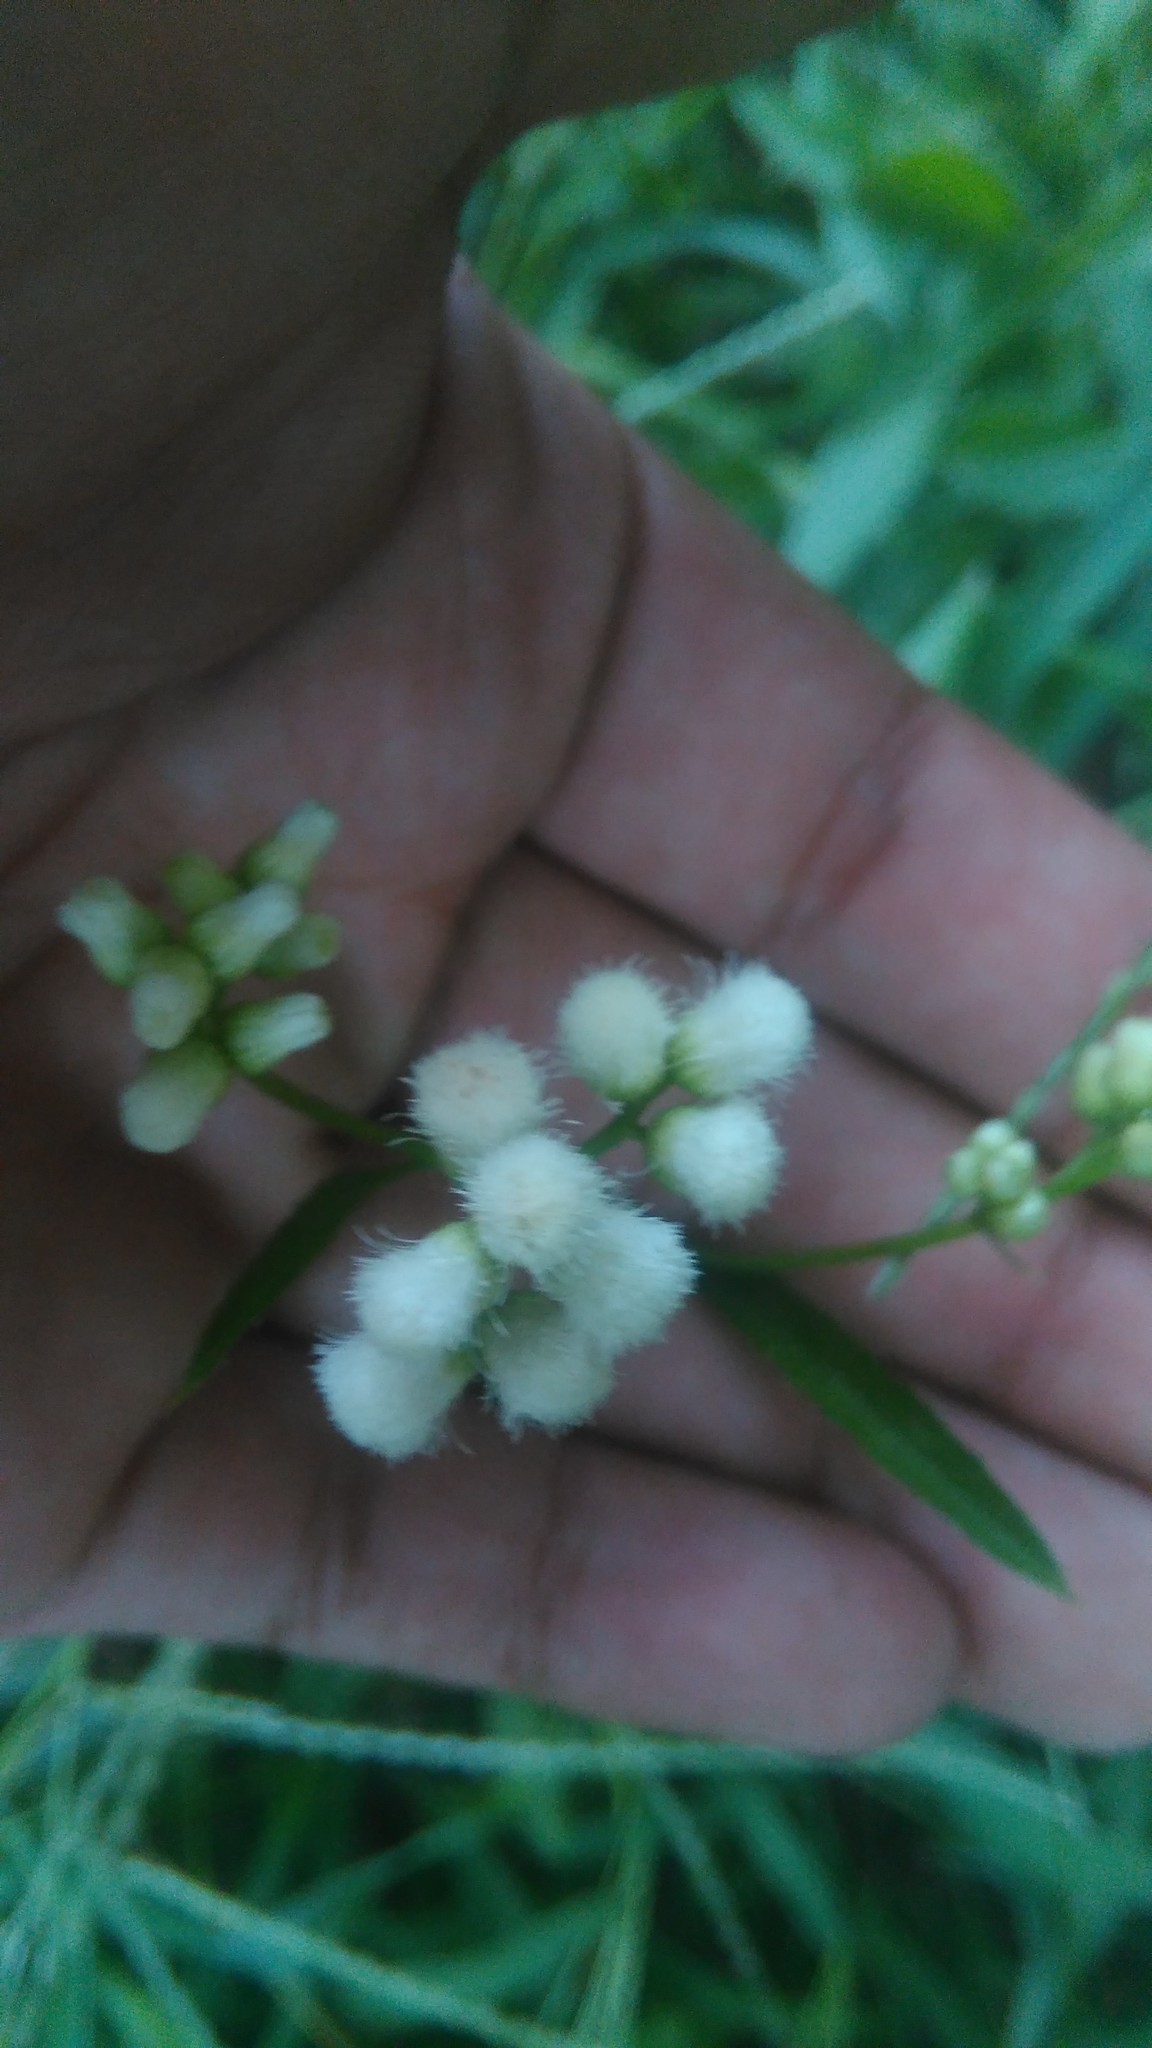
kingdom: Plantae
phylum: Tracheophyta
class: Magnoliopsida
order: Asterales
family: Asteraceae
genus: Baccharis
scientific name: Baccharis glutinosa
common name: Saltmarsh baccharis
